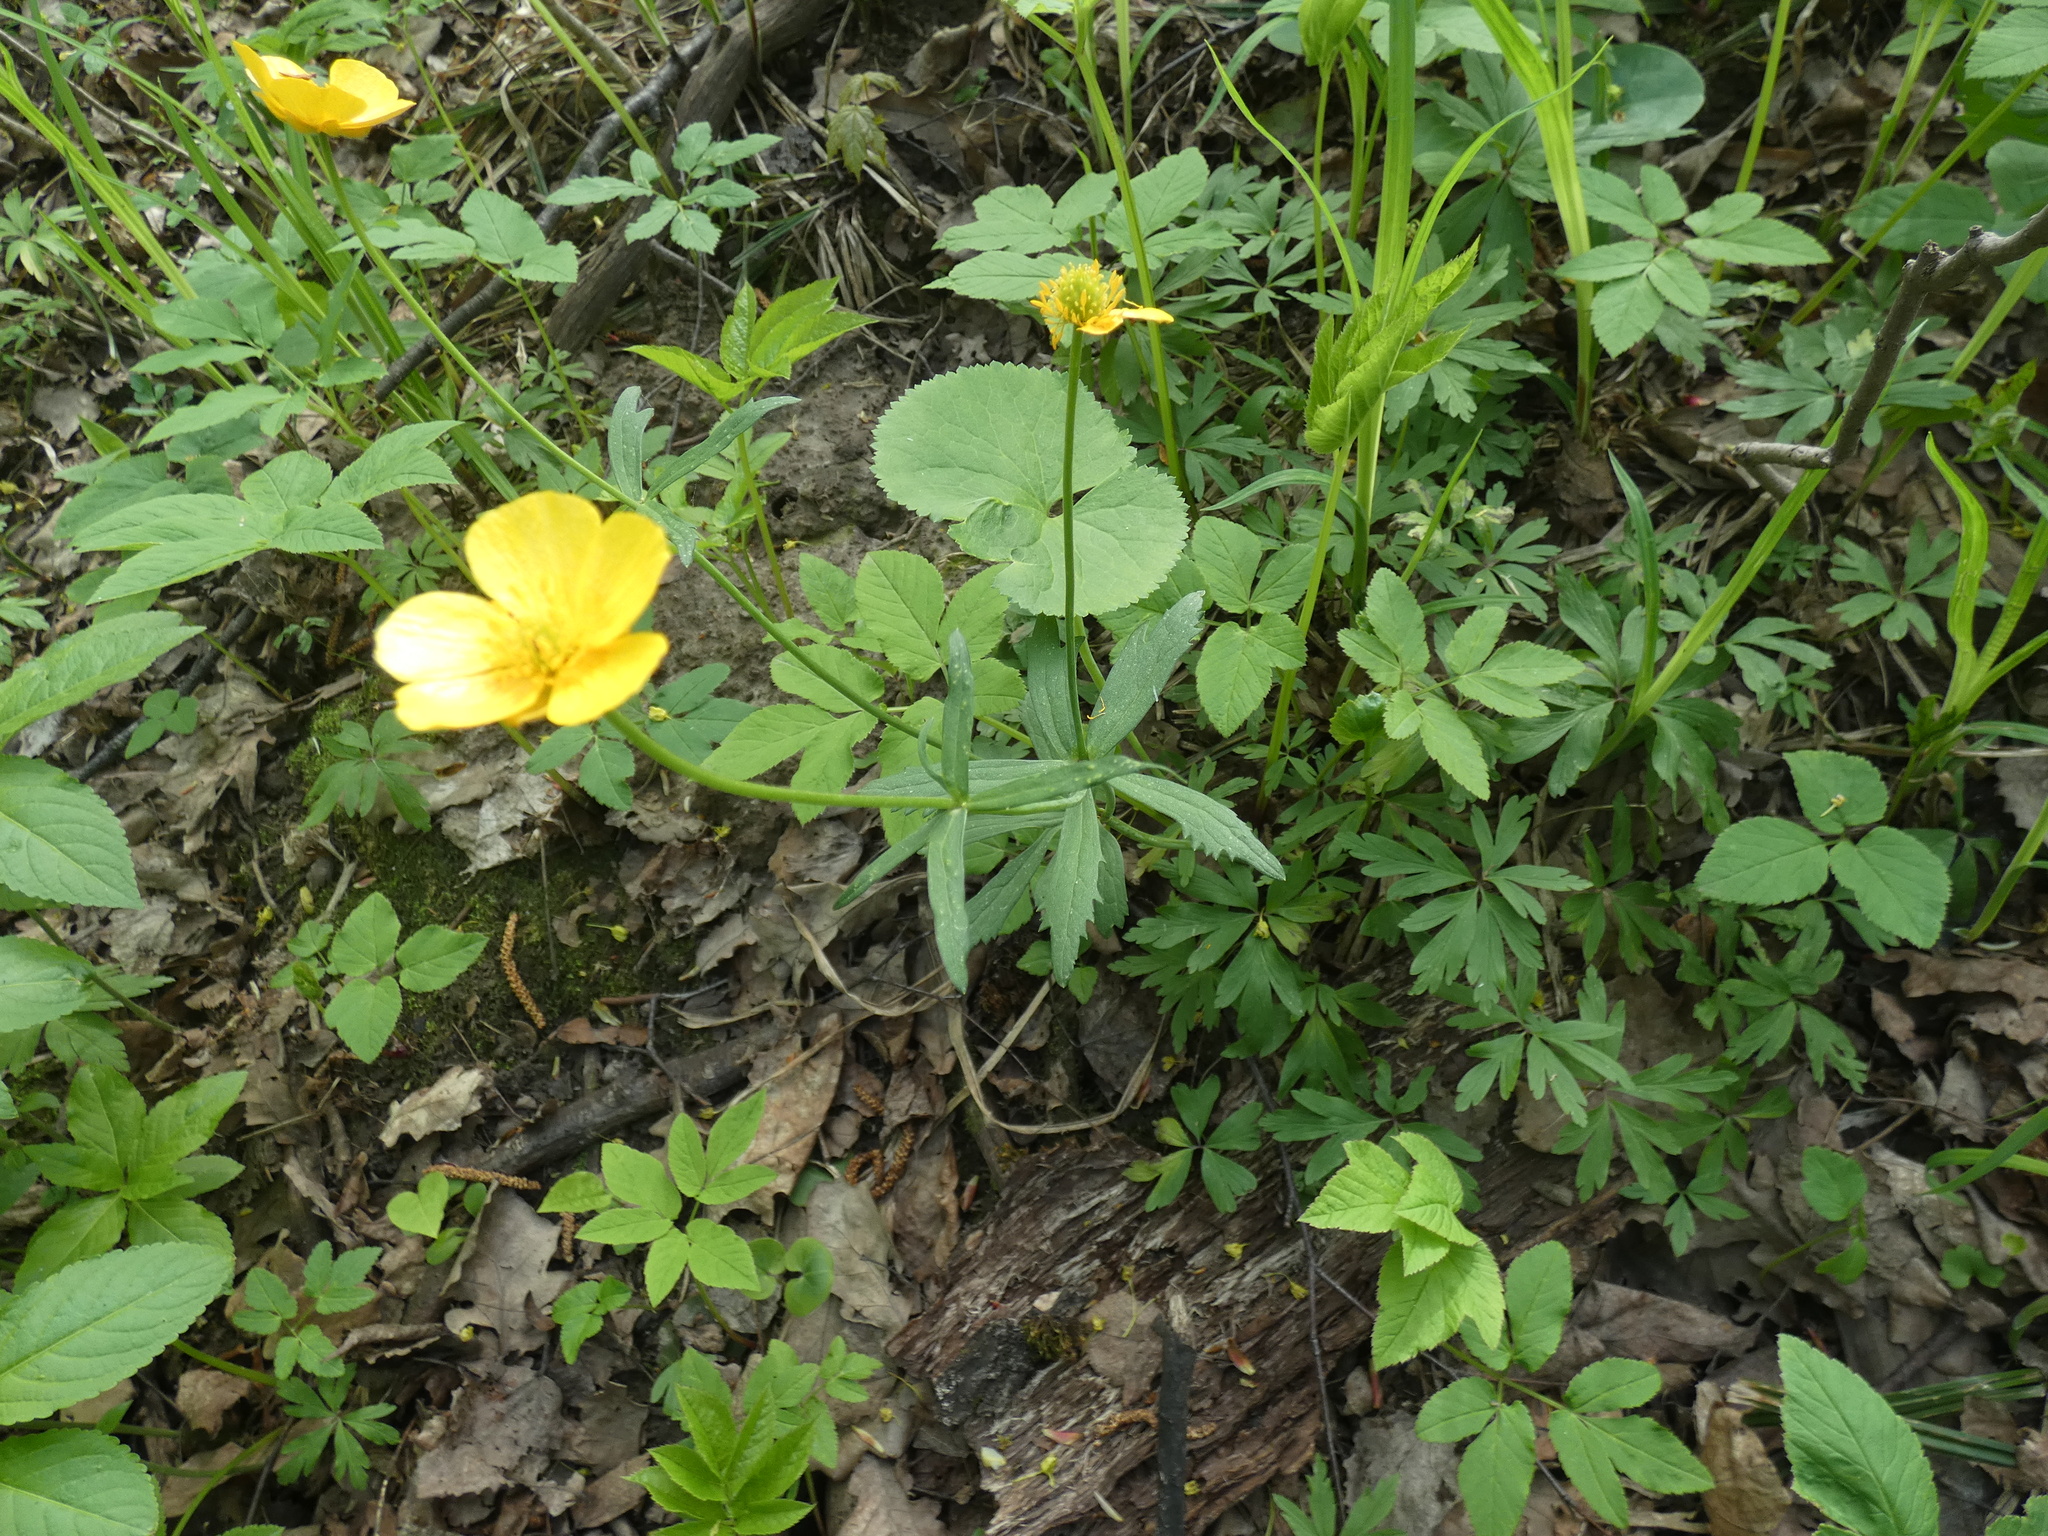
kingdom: Plantae
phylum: Tracheophyta
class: Magnoliopsida
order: Ranunculales
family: Ranunculaceae
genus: Ranunculus
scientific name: Ranunculus cassubicus
